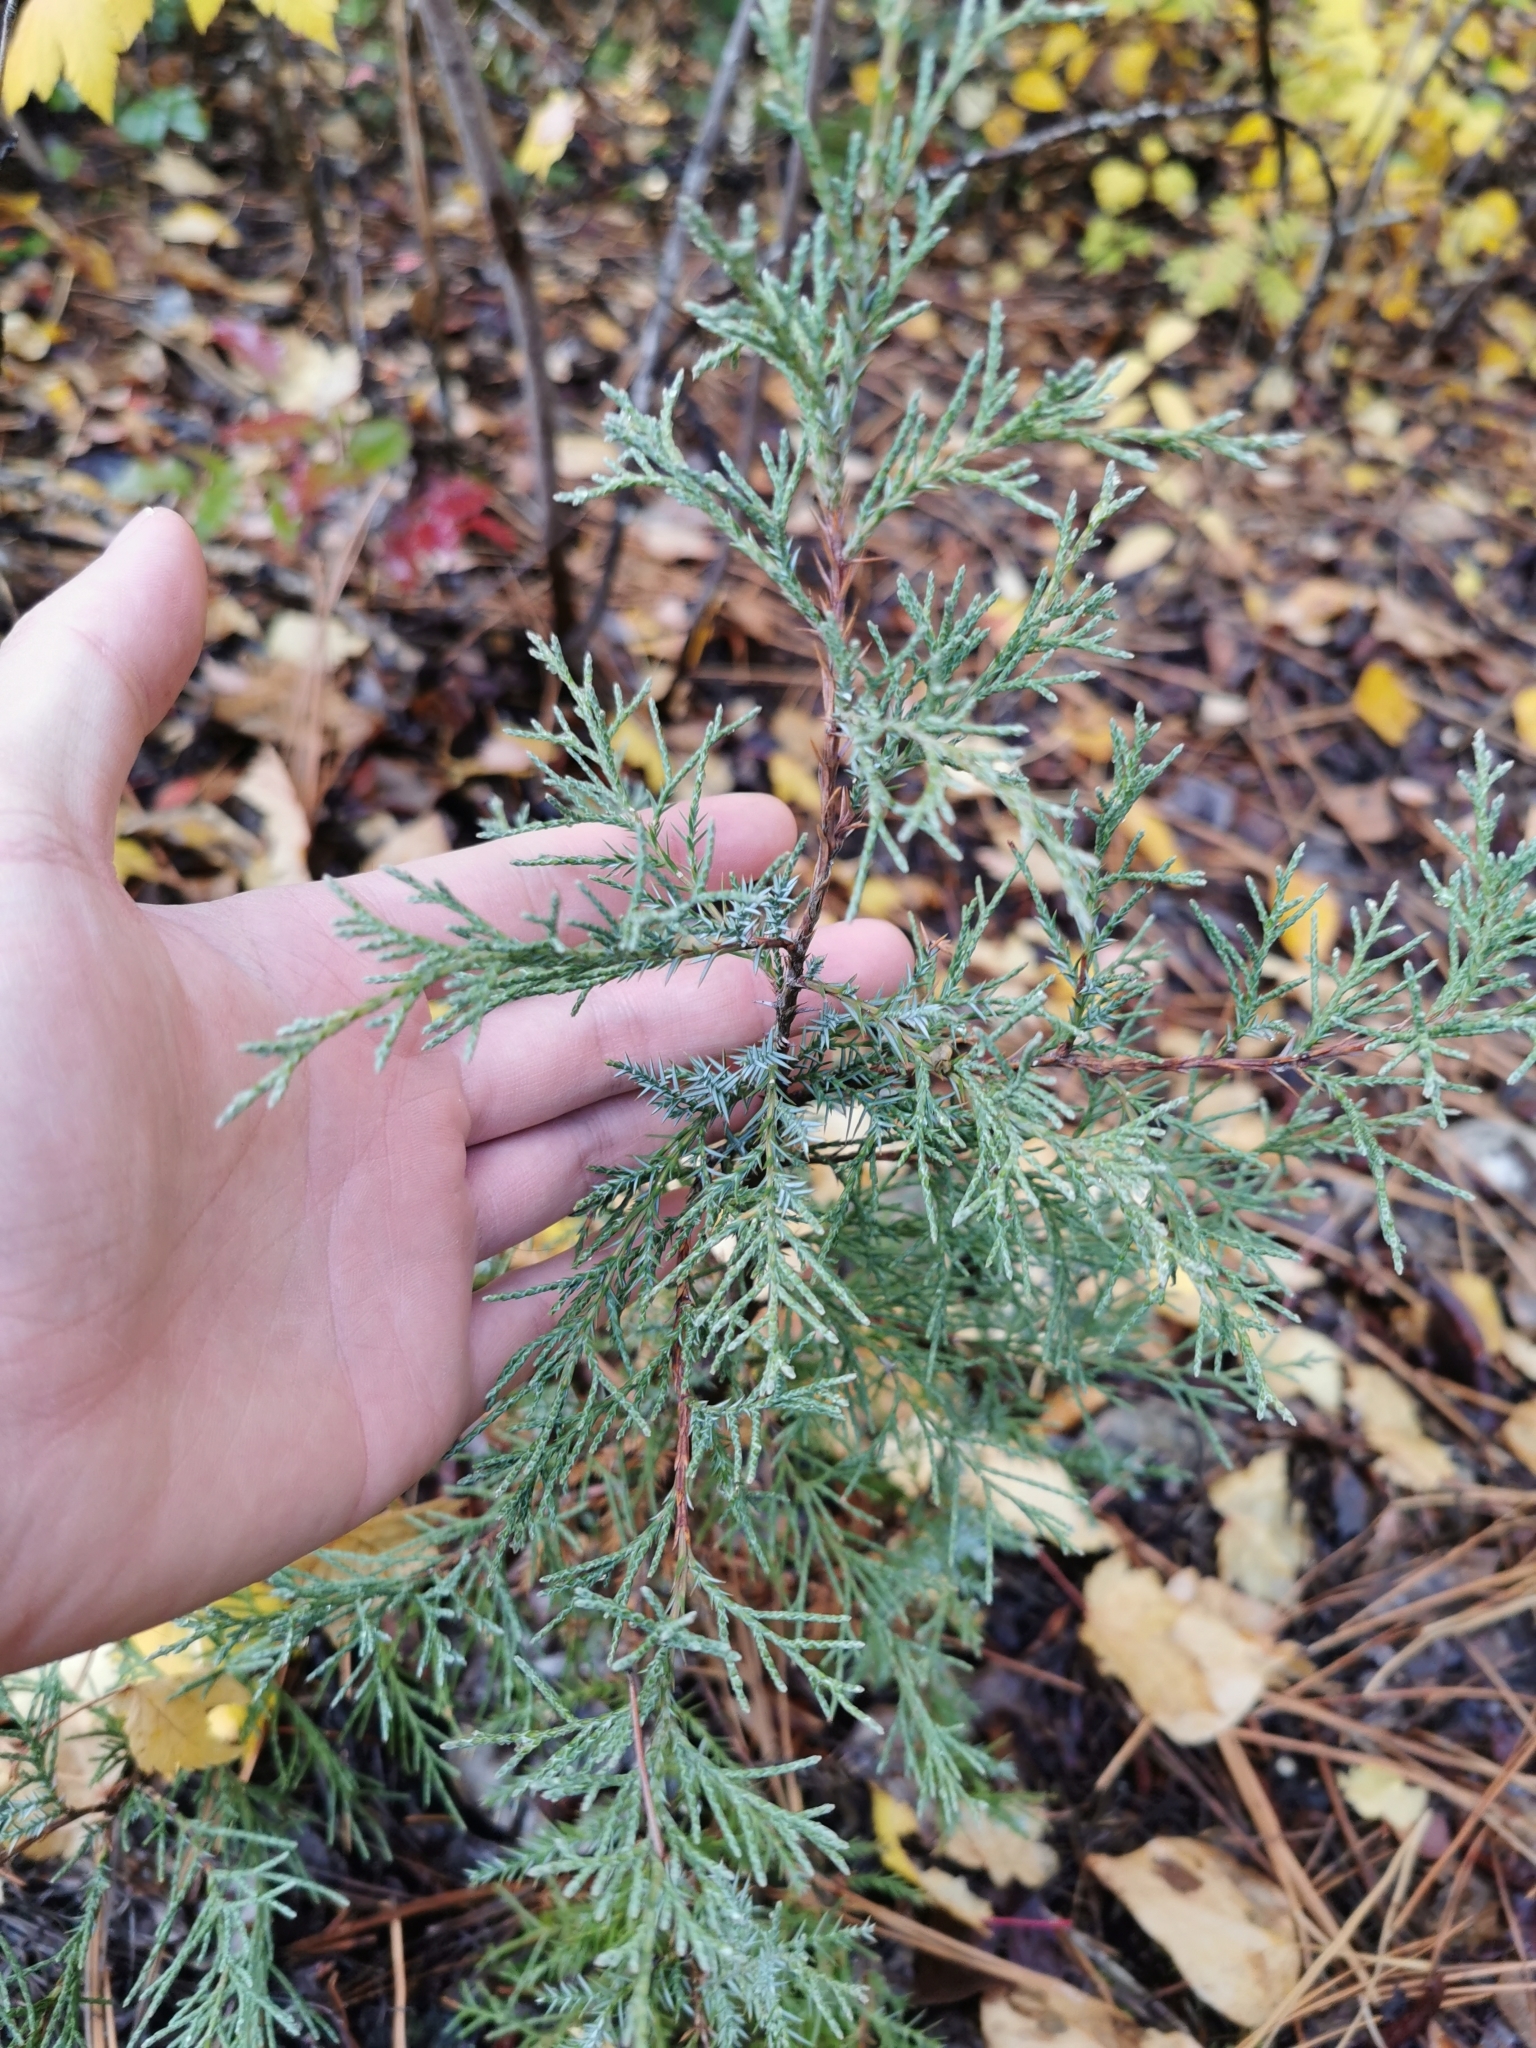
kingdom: Plantae
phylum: Tracheophyta
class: Pinopsida
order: Pinales
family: Cupressaceae
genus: Juniperus
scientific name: Juniperus scopulorum
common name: Rocky mountain juniper
